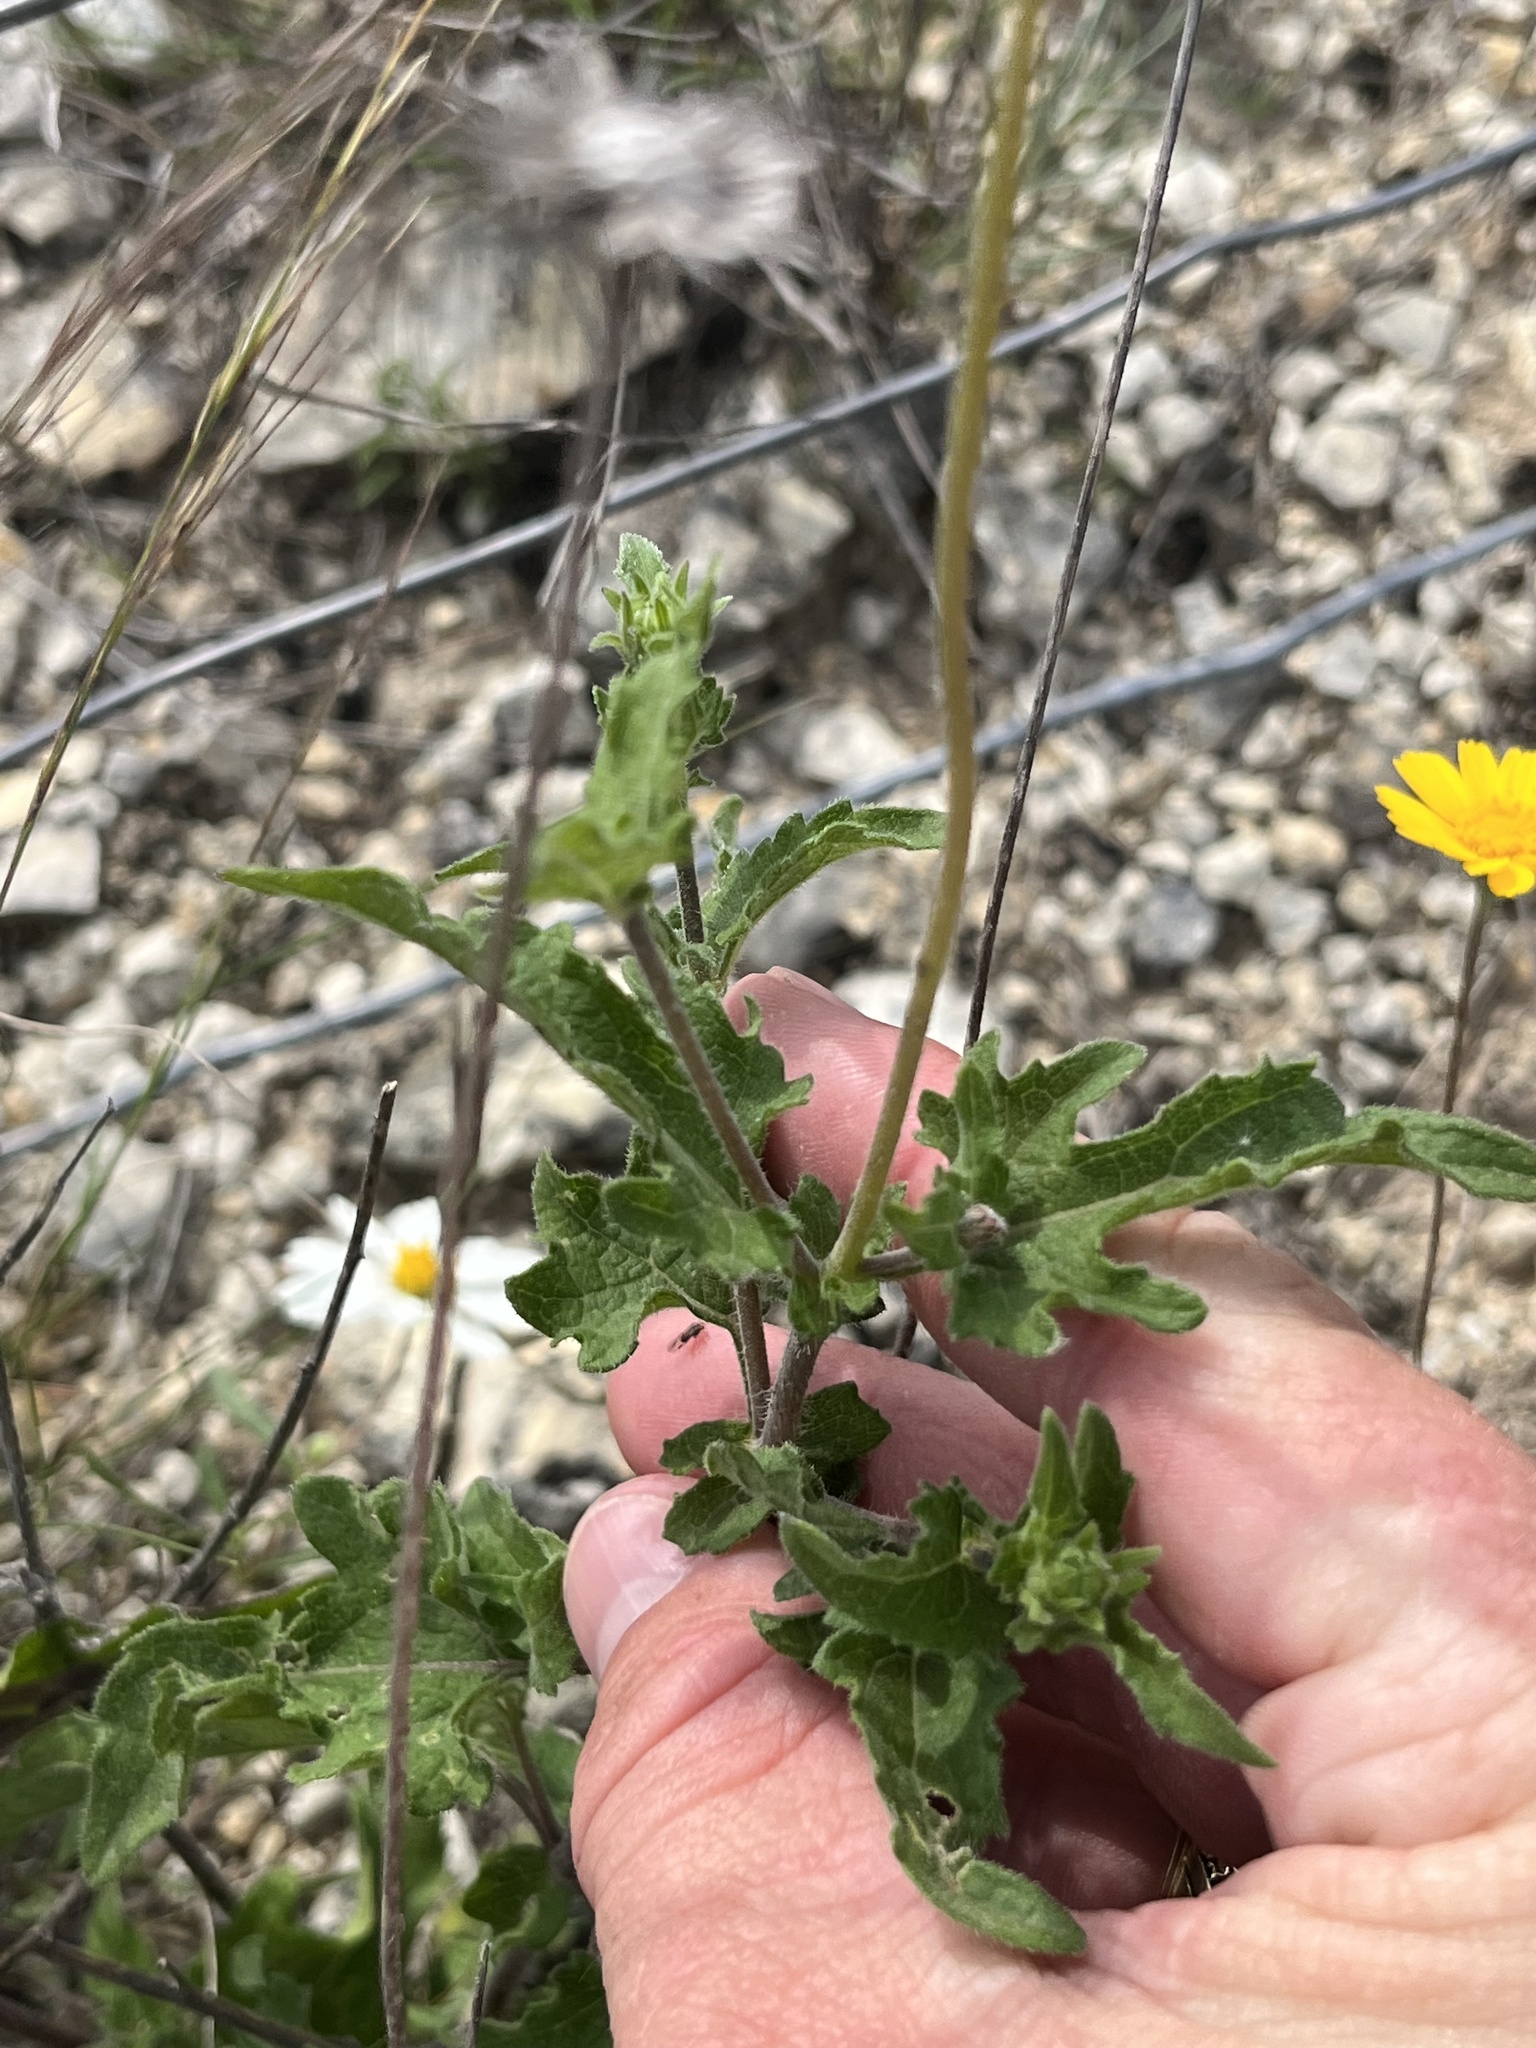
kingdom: Plantae
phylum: Tracheophyta
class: Magnoliopsida
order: Asterales
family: Asteraceae
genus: Simsia
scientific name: Simsia calva
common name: Awnless bush-sunflower
